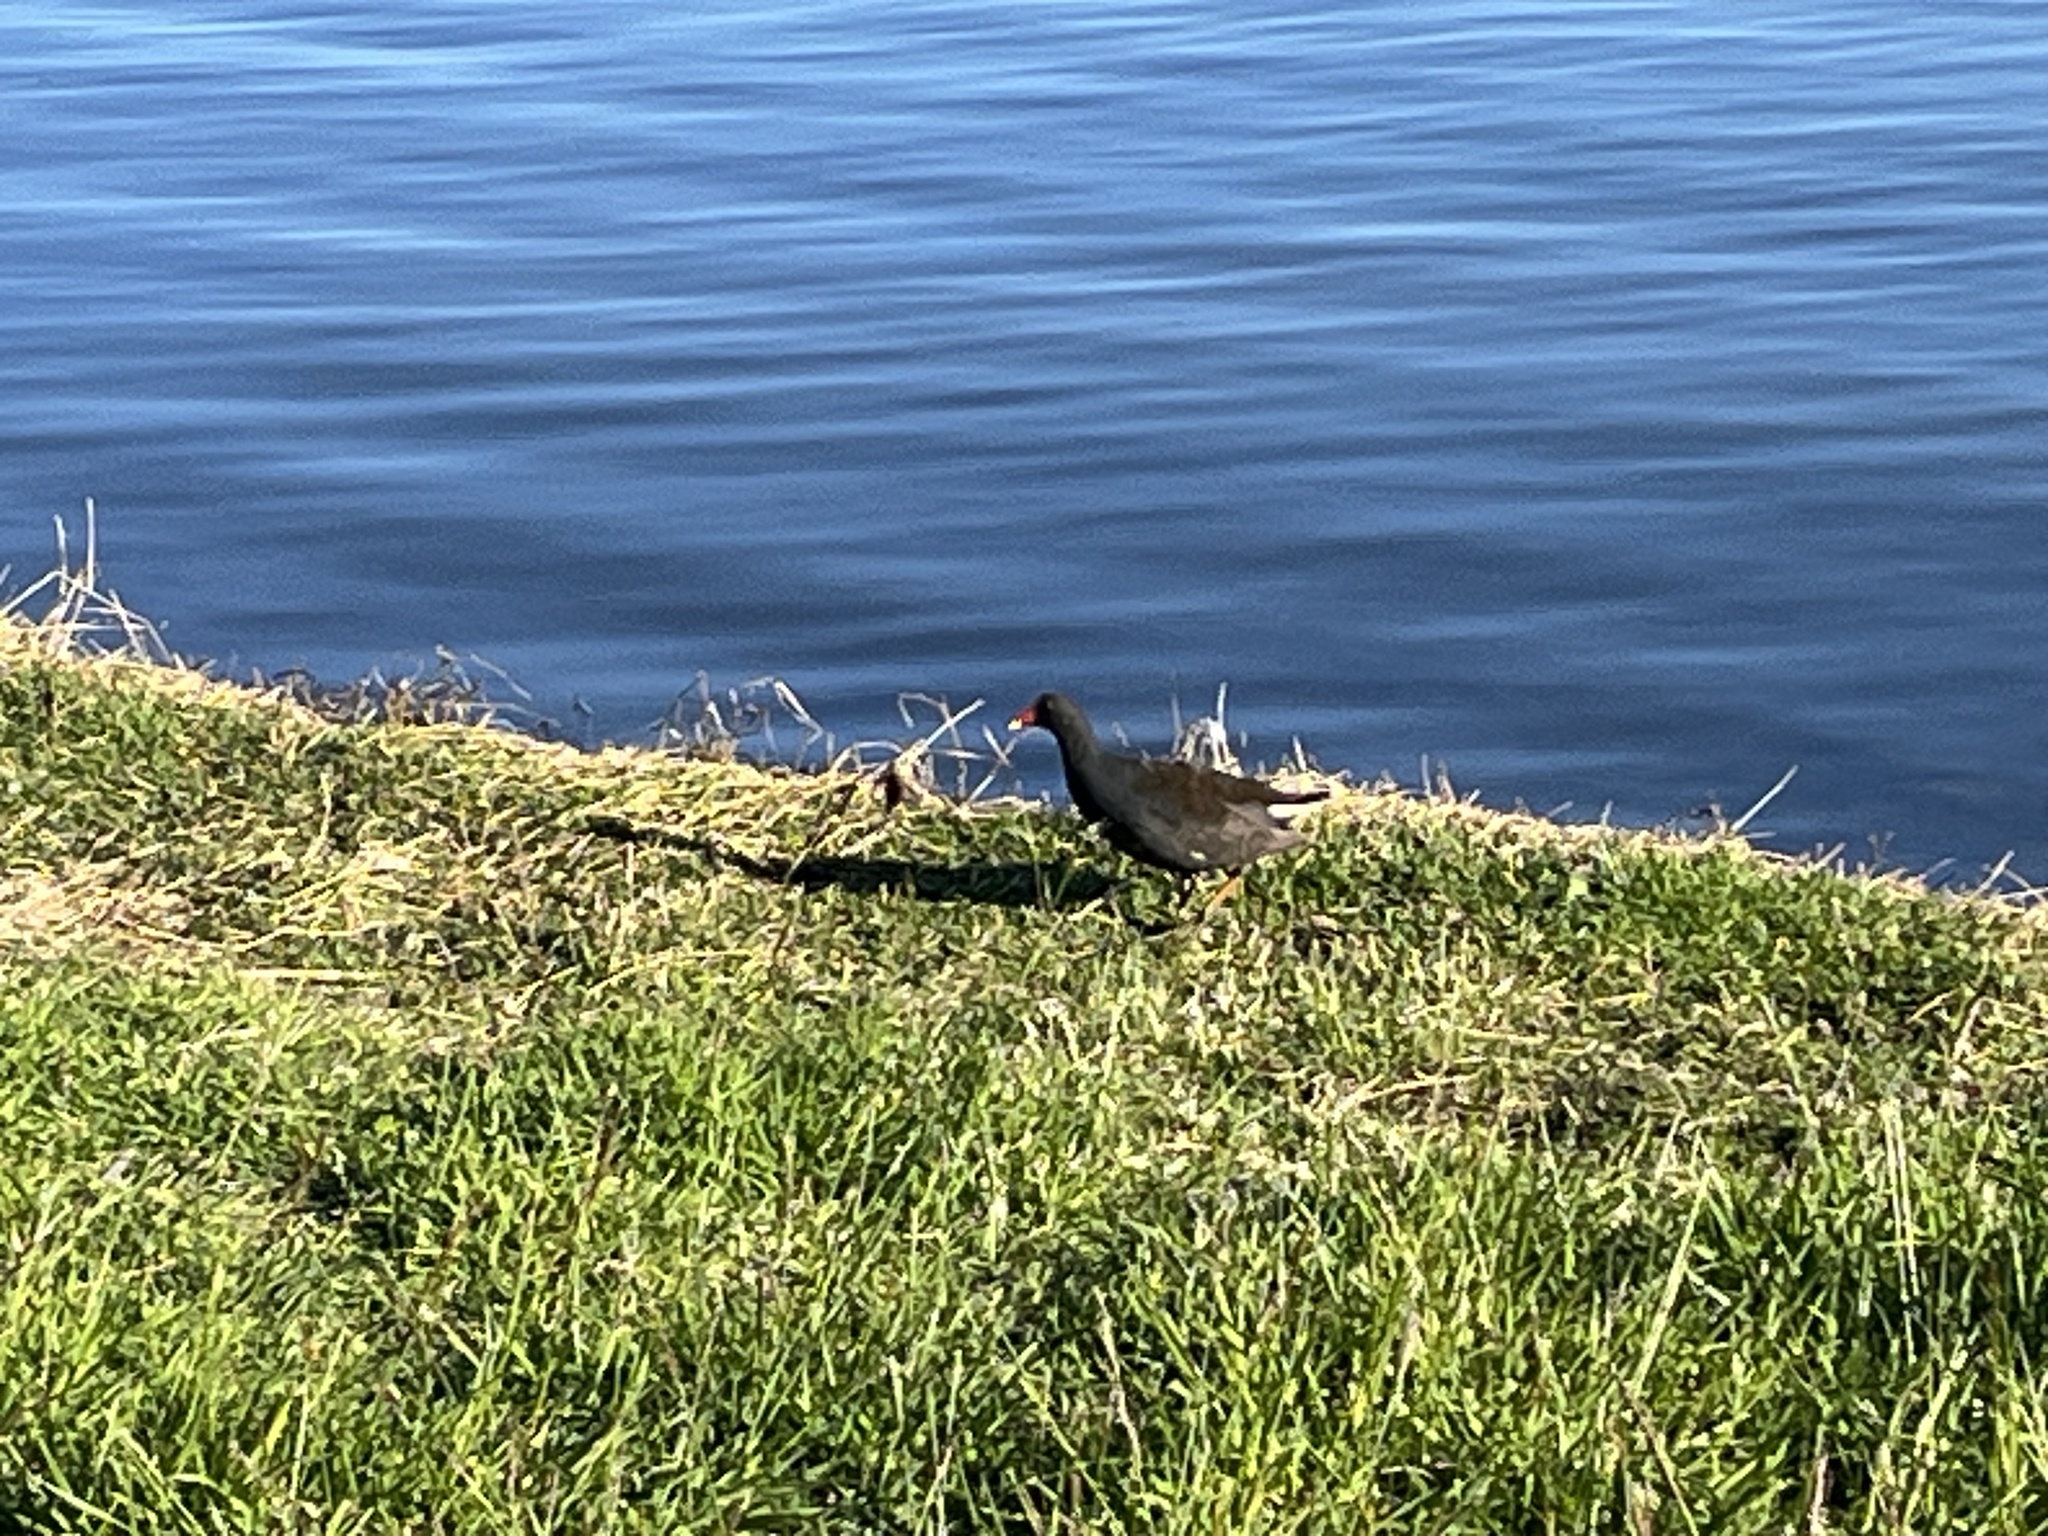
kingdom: Animalia
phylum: Chordata
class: Aves
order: Gruiformes
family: Rallidae
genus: Gallinula
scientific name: Gallinula tenebrosa
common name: Dusky moorhen
